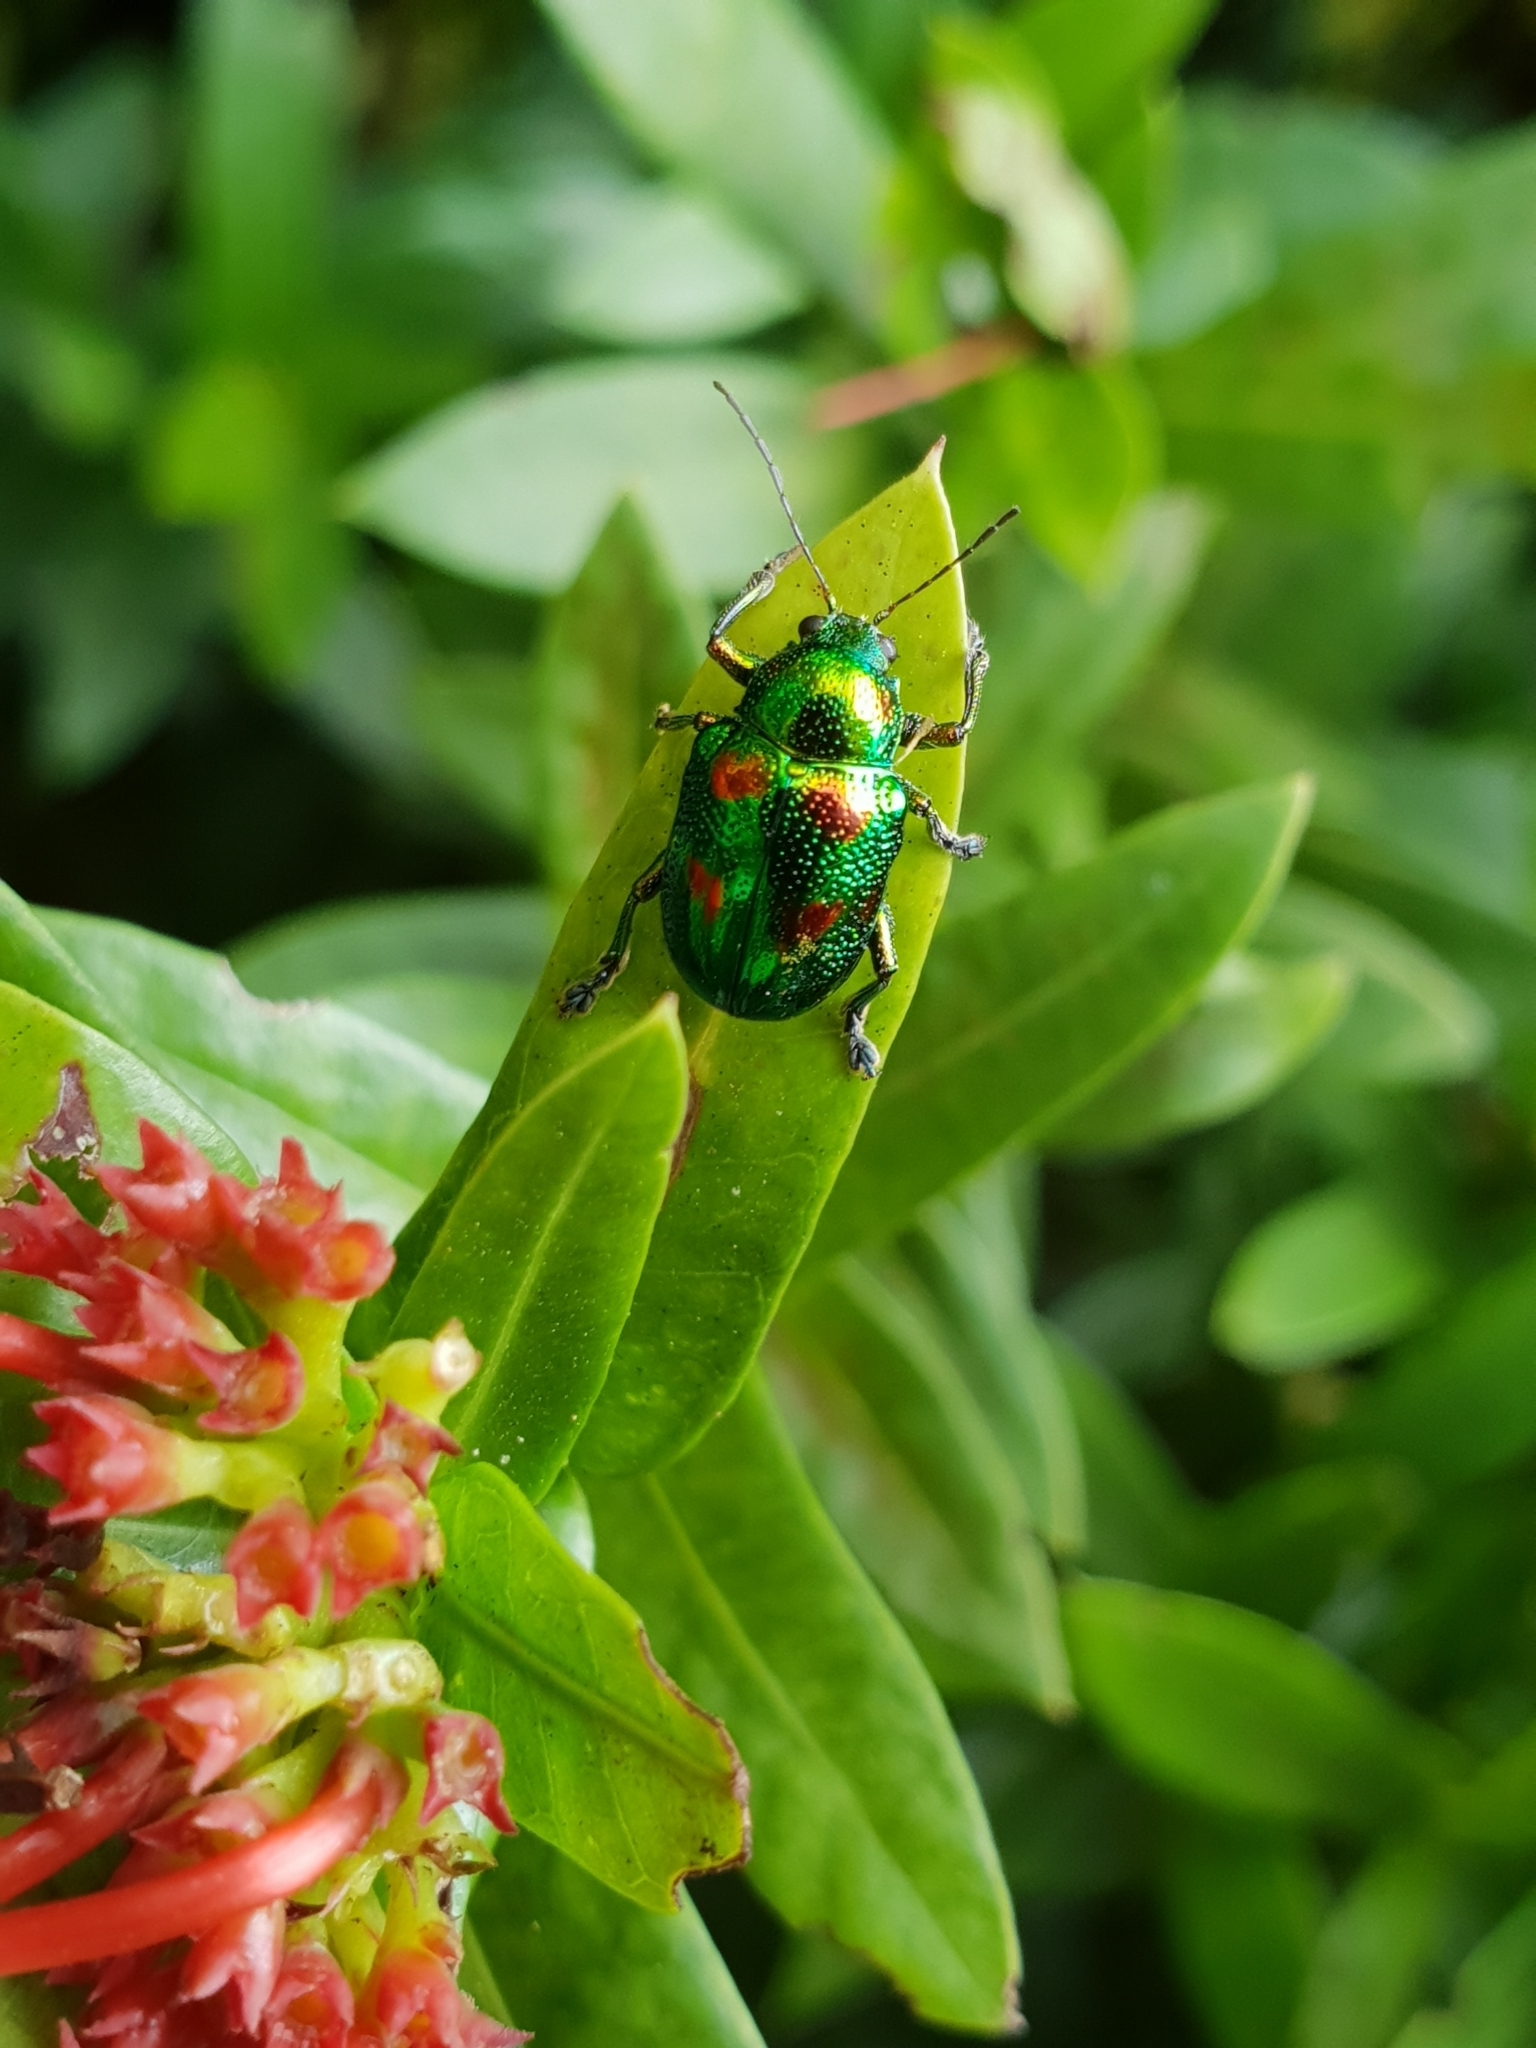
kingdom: Animalia
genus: Dermorhytis
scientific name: Dermorhytis
